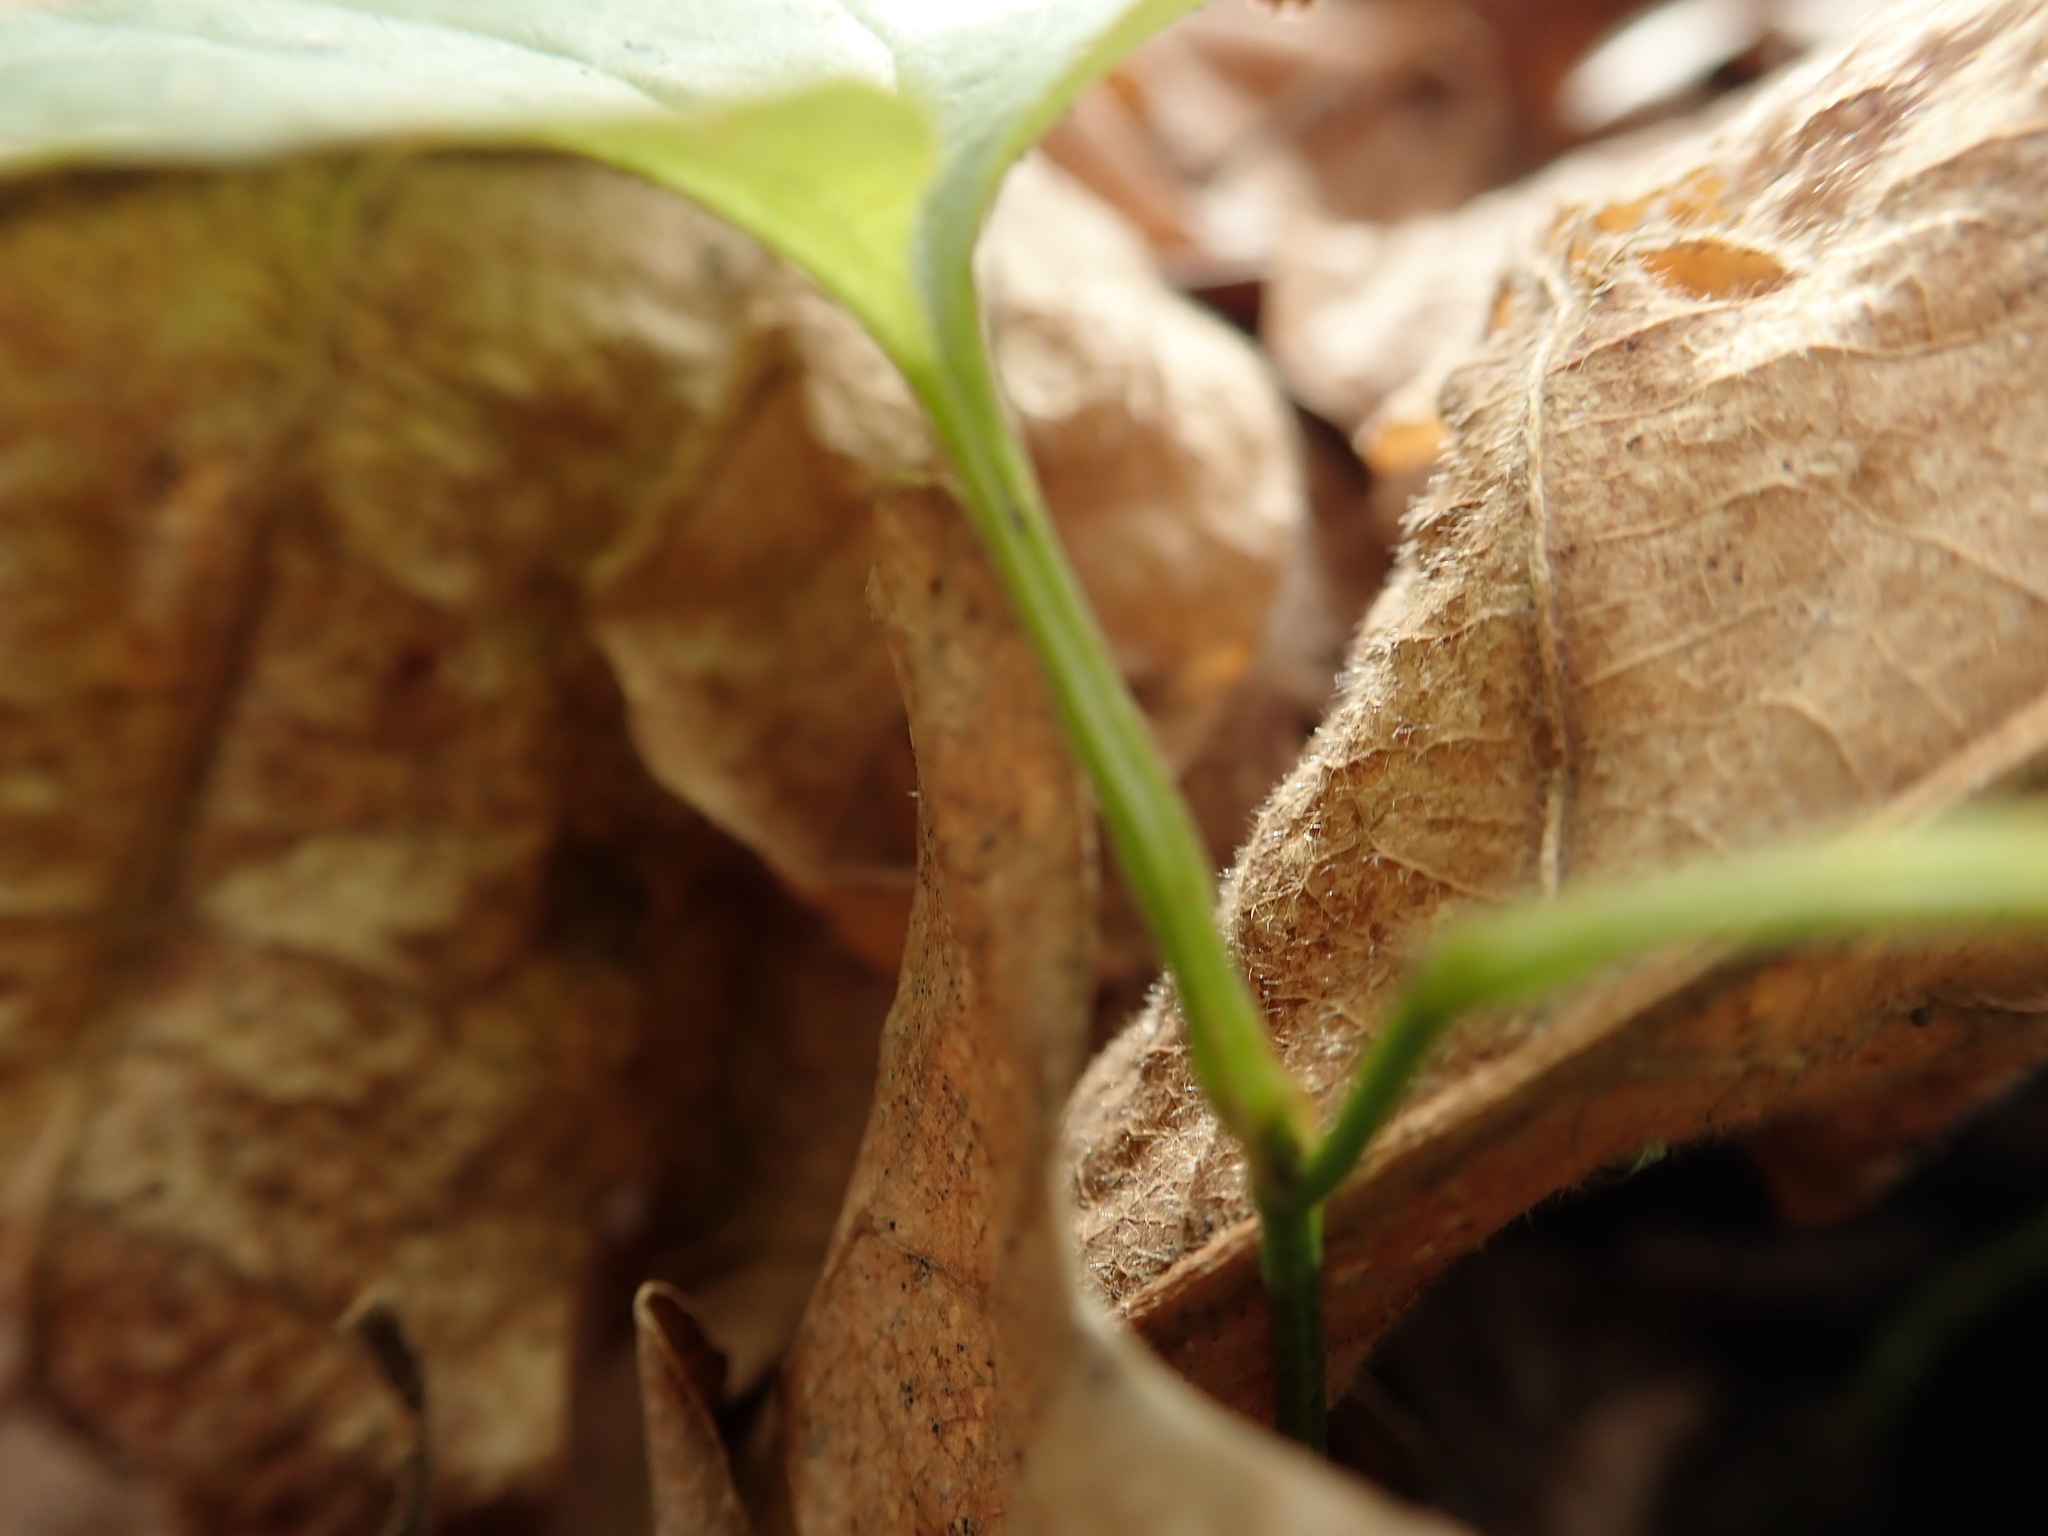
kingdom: Plantae
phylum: Tracheophyta
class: Liliopsida
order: Liliales
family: Smilacaceae
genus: Smilax
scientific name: Smilax tamnoides
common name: Hellfetter
